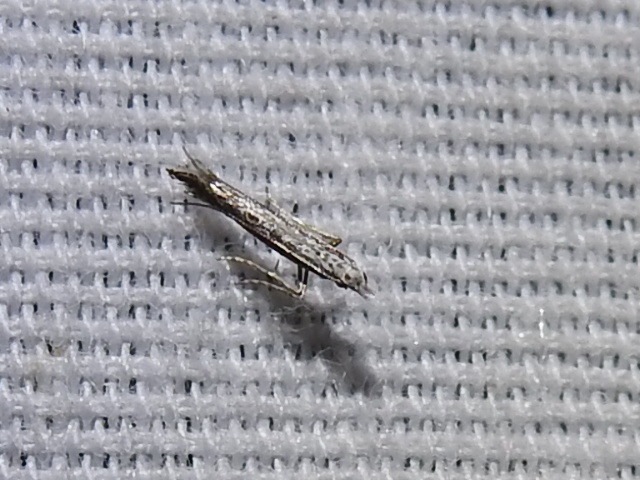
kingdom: Plantae
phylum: Rhodophyta
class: Florideophyceae
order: Gracilariales
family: Gracilariaceae
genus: Gracilaria
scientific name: Gracilaria
